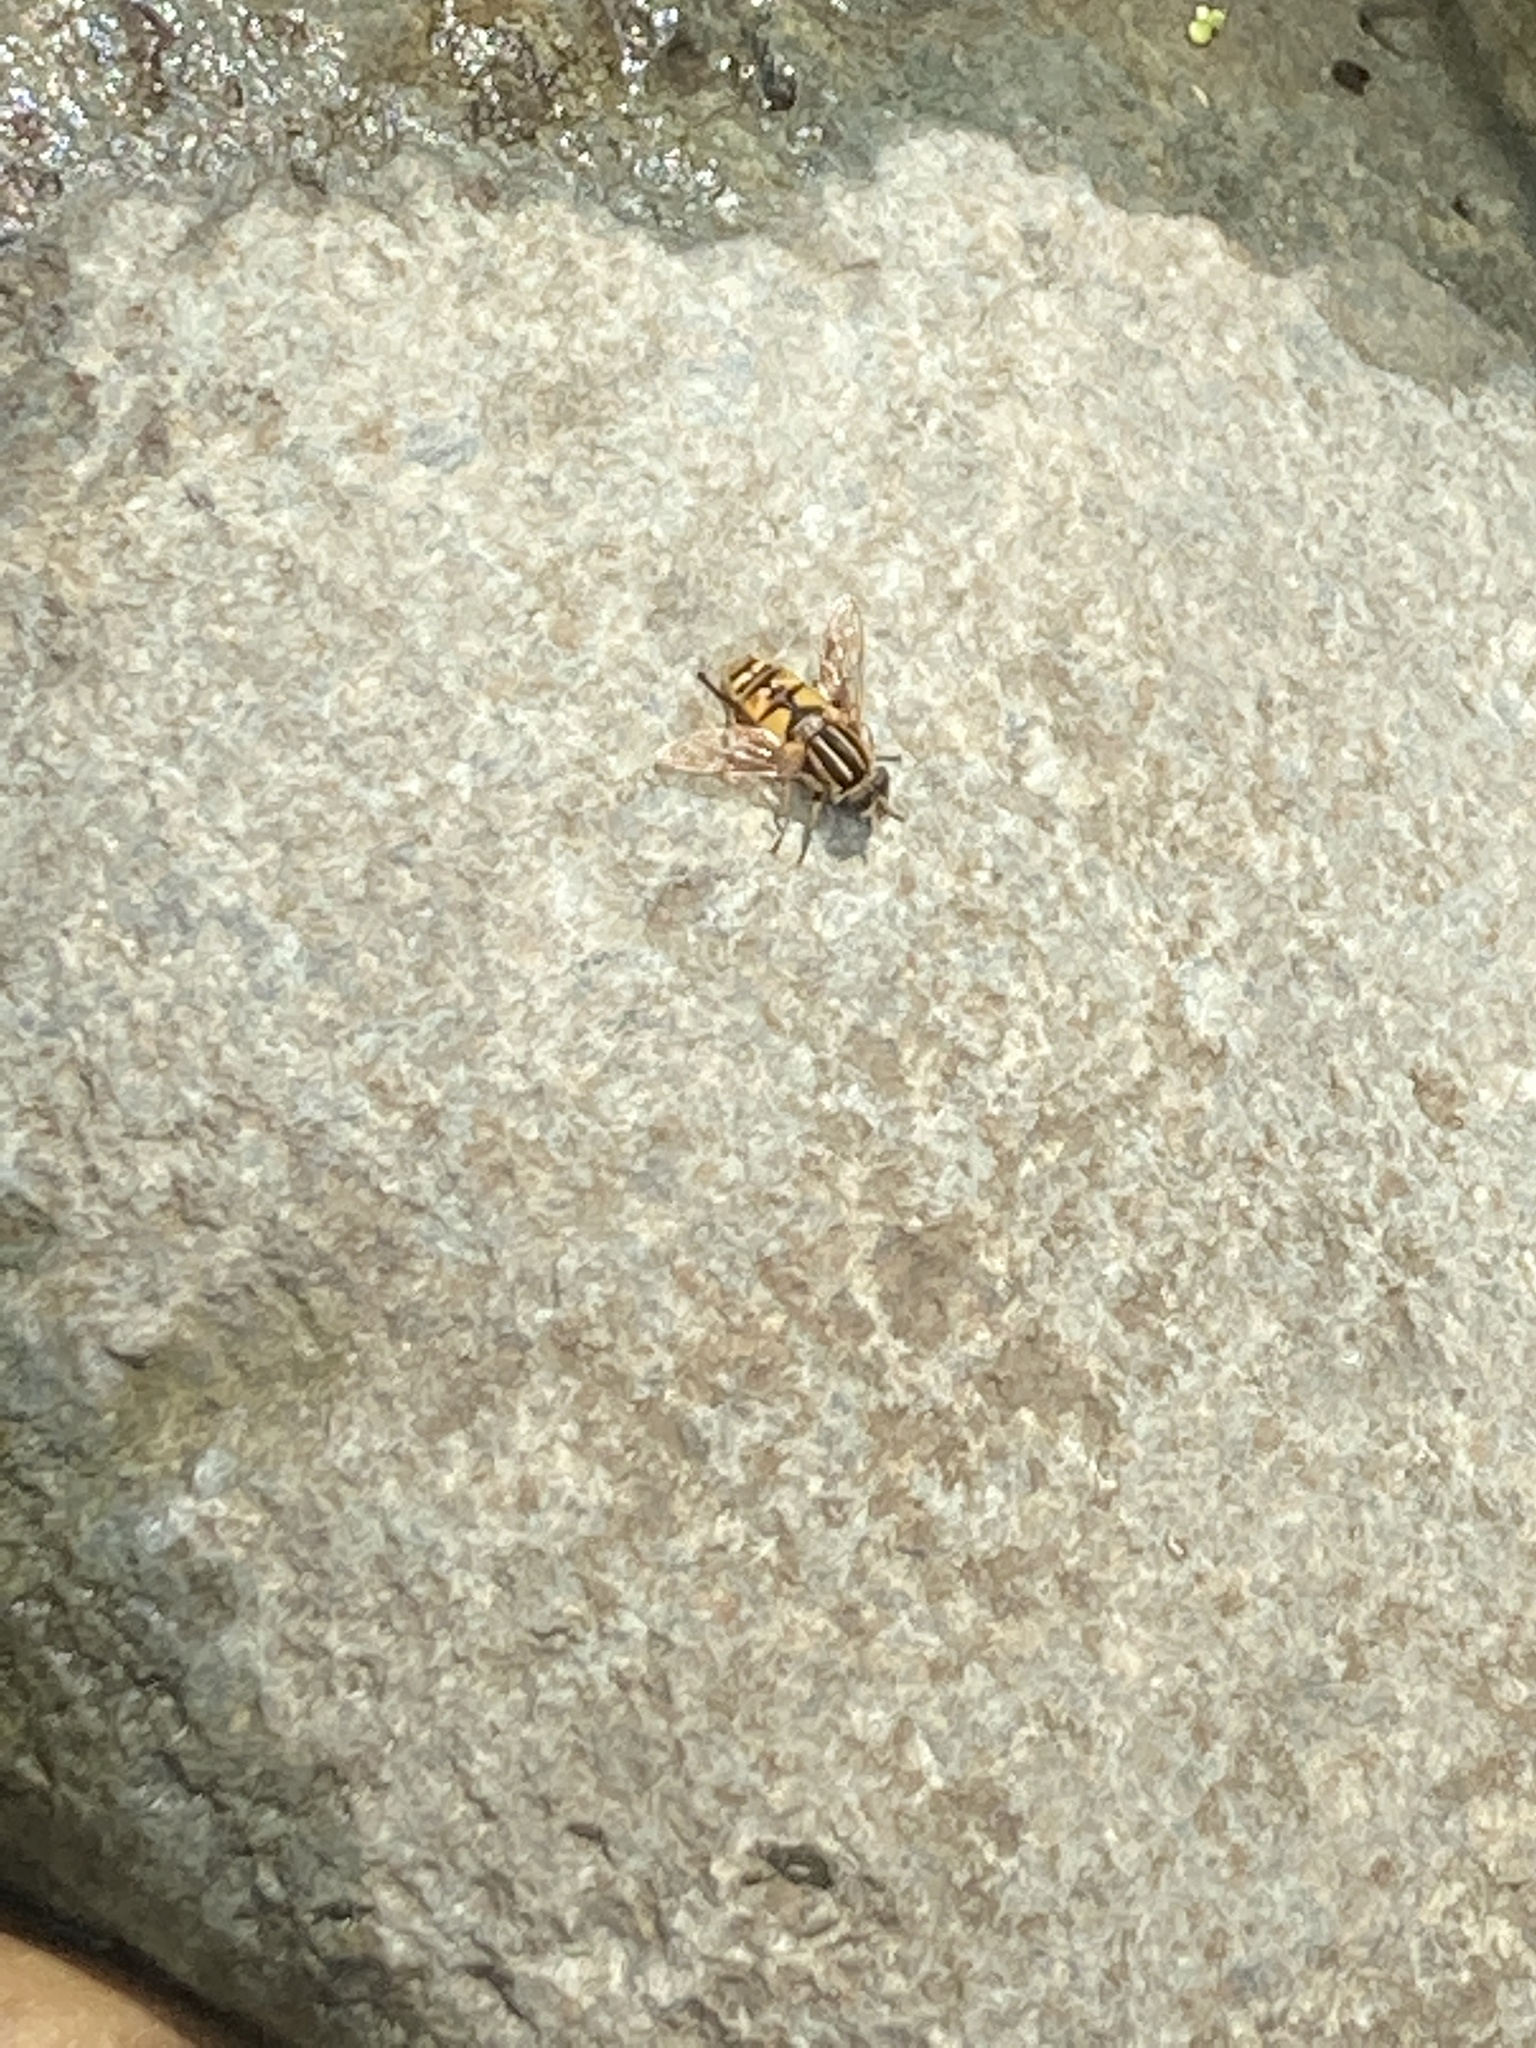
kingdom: Animalia
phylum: Arthropoda
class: Insecta
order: Diptera
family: Syrphidae
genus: Helophilus
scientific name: Helophilus pendulus
